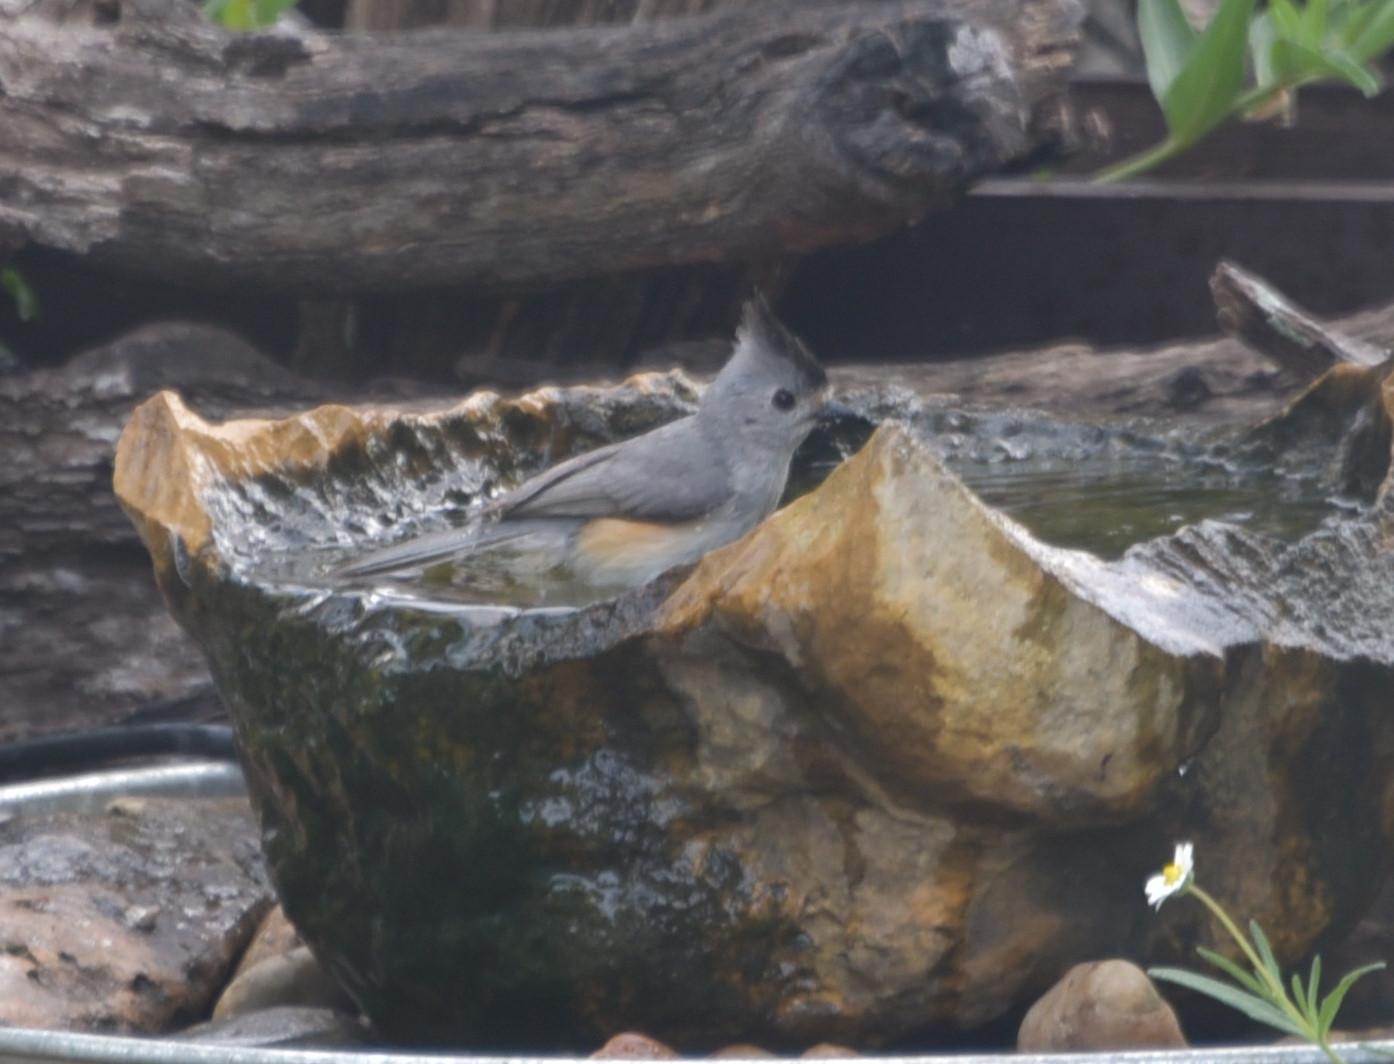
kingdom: Animalia
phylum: Chordata
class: Aves
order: Passeriformes
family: Paridae
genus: Baeolophus
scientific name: Baeolophus atricristatus
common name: Black-crested titmouse
